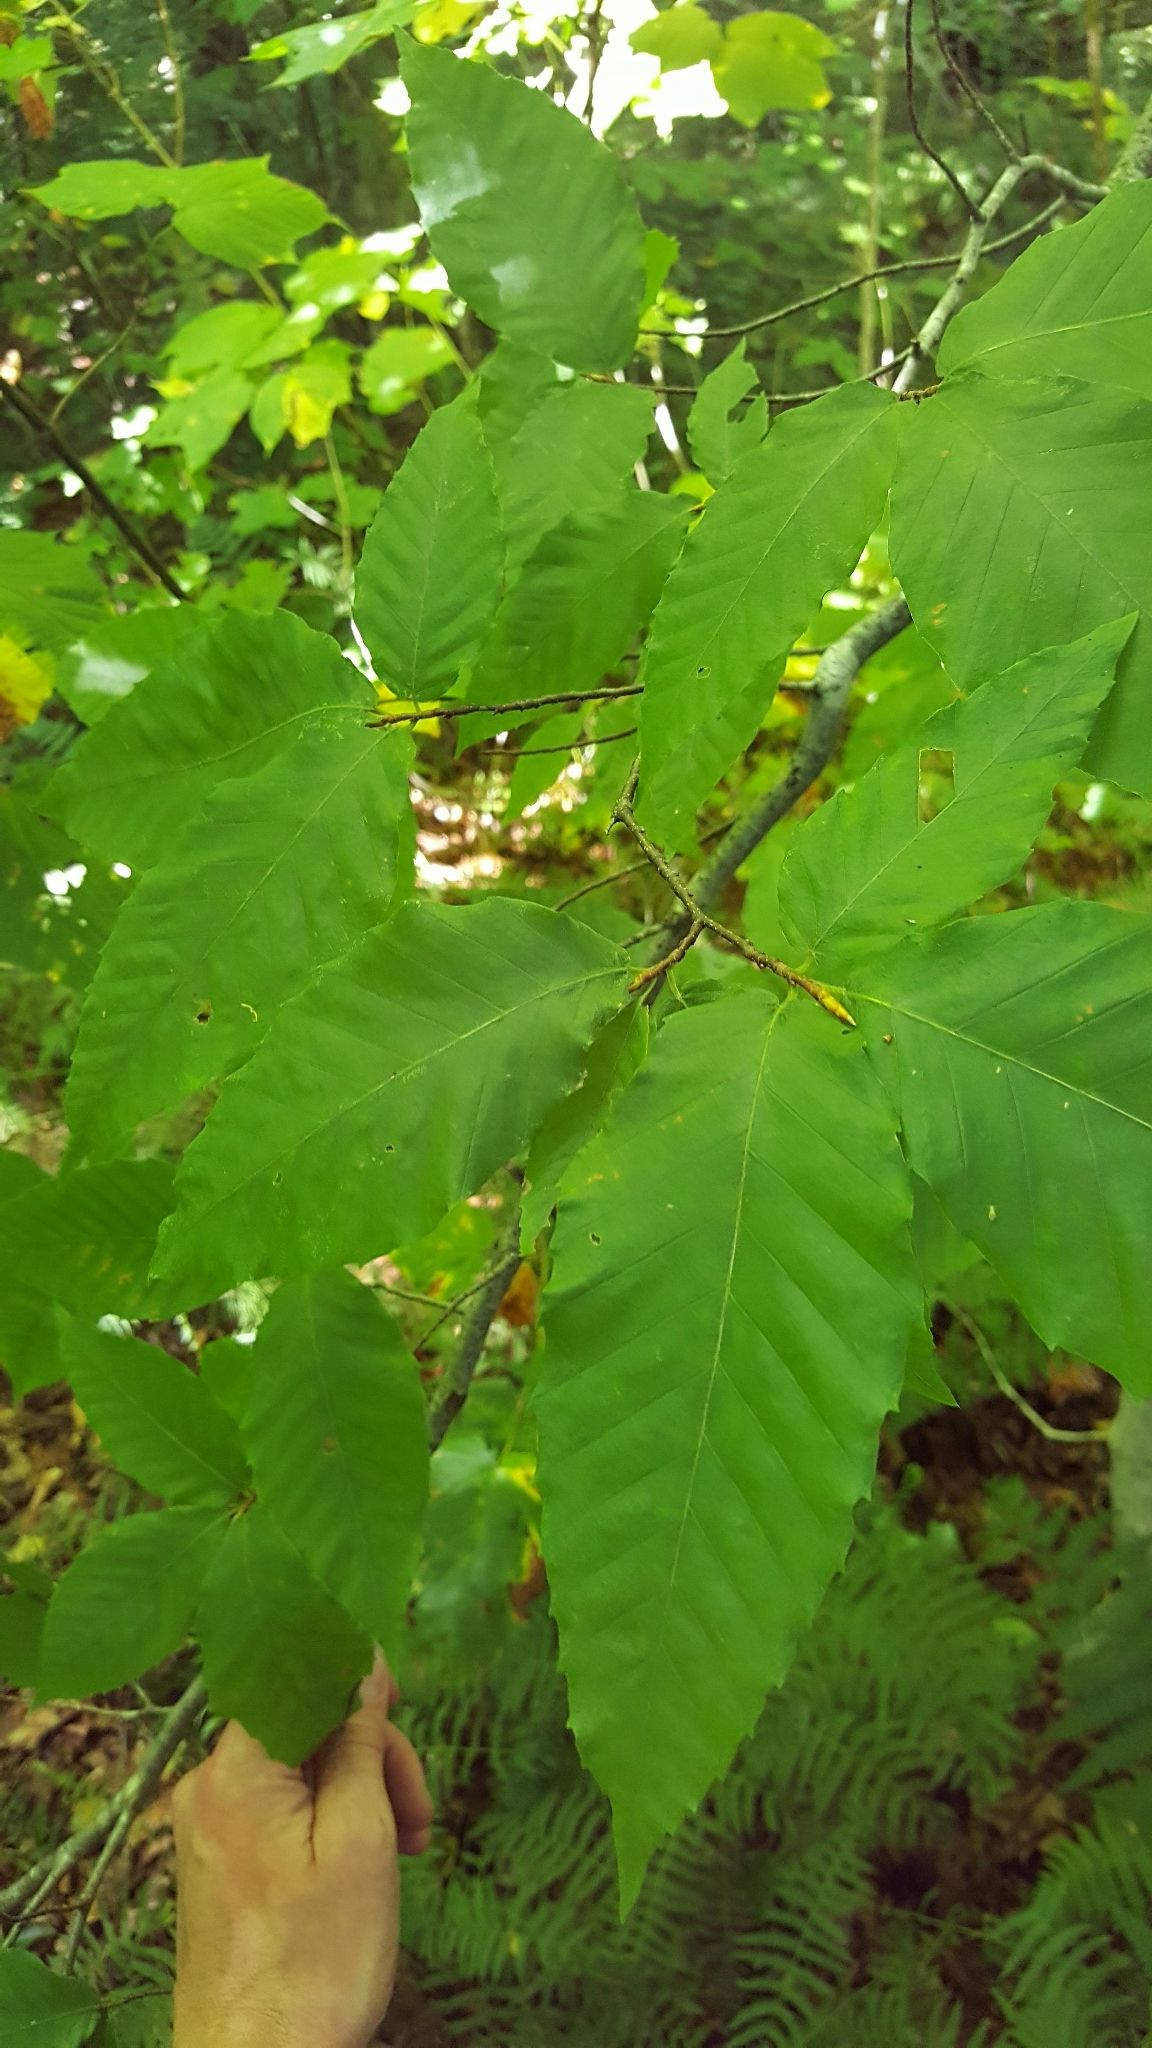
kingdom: Plantae
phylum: Tracheophyta
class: Magnoliopsida
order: Fagales
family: Fagaceae
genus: Fagus
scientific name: Fagus grandifolia
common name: American beech
